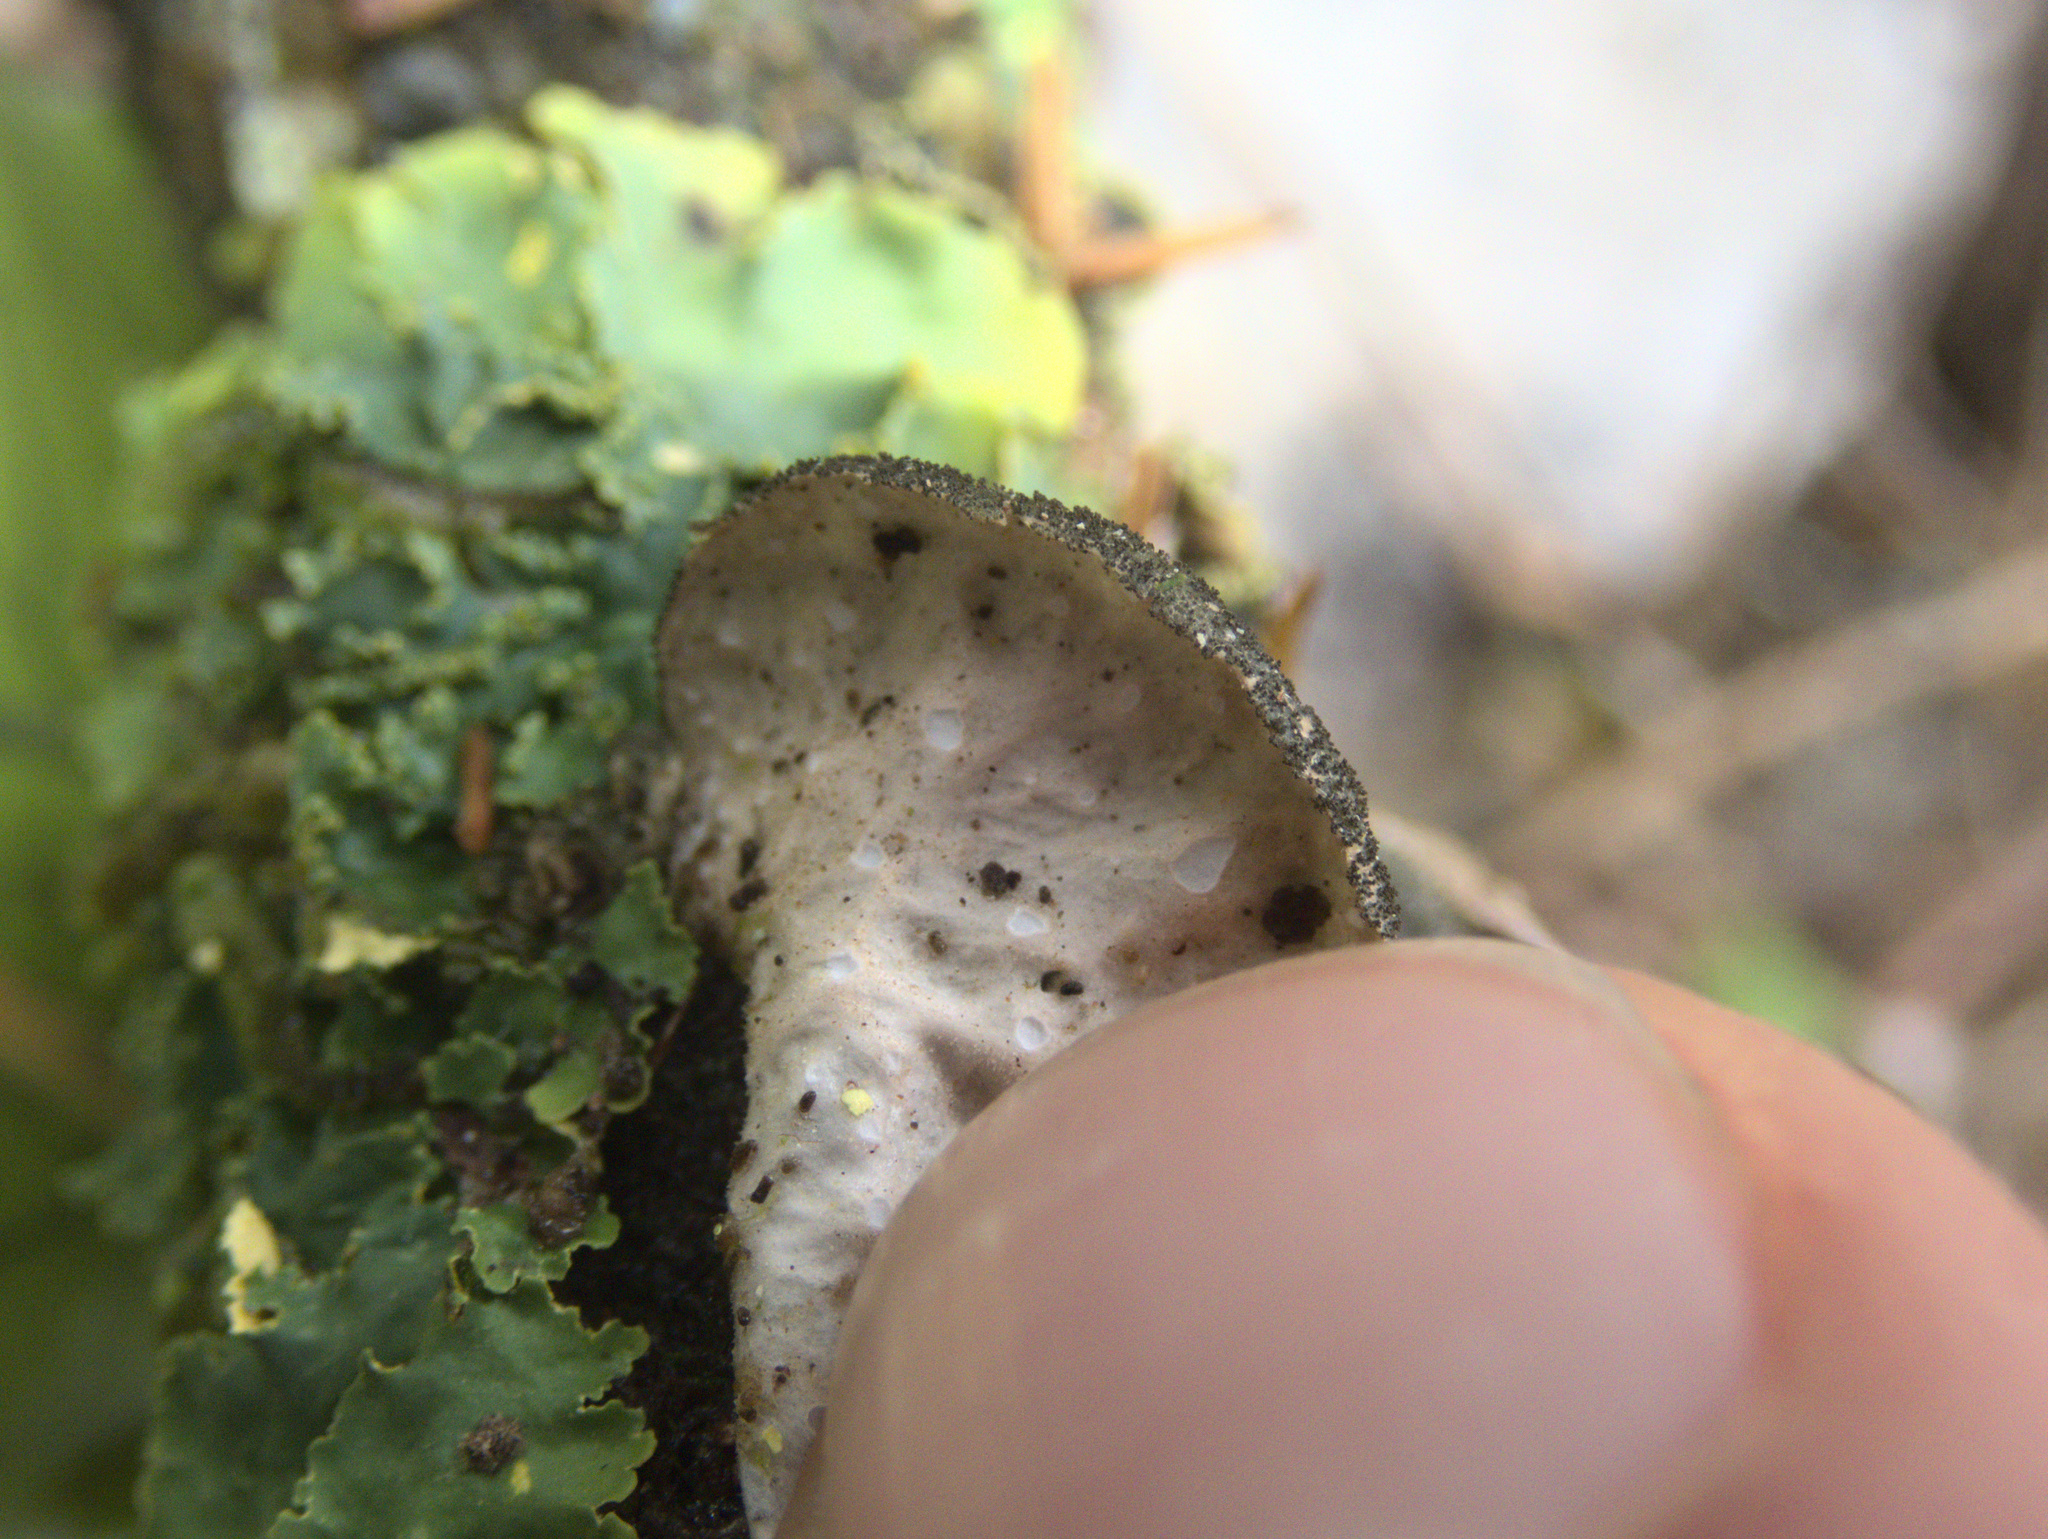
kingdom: Fungi
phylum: Ascomycota
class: Lecanoromycetes
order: Peltigerales
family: Lobariaceae
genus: Sticta
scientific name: Sticta fuliginosa
